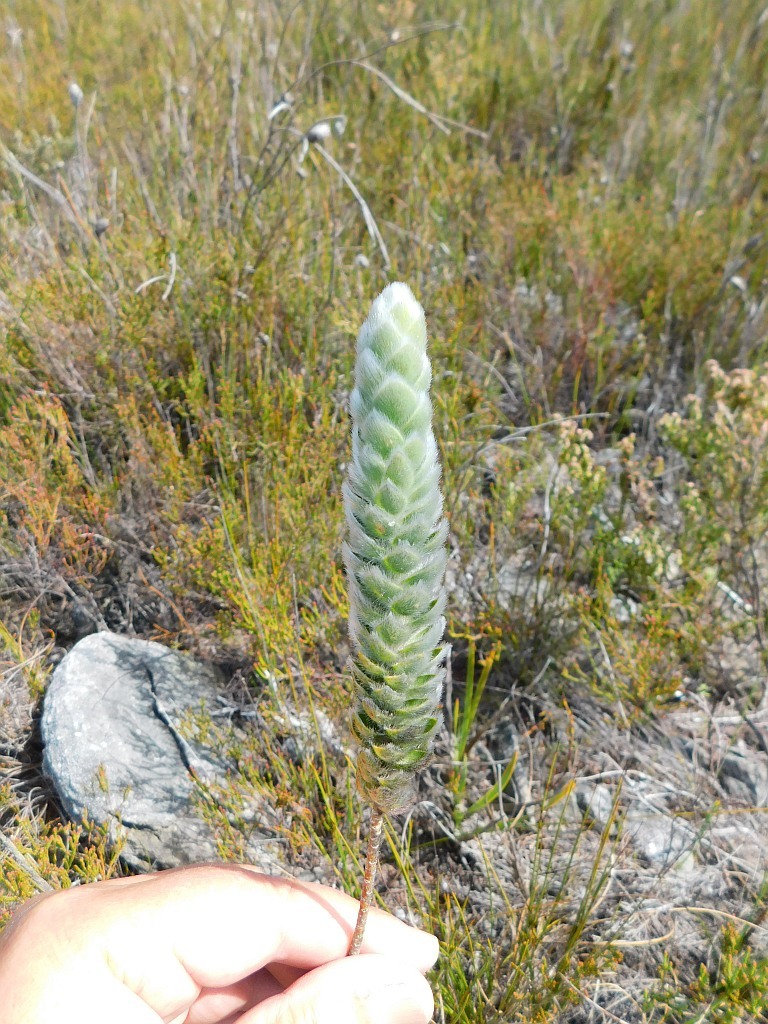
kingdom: Plantae
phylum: Tracheophyta
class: Magnoliopsida
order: Fabales
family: Fabaceae
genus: Liparia
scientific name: Liparia vestita
